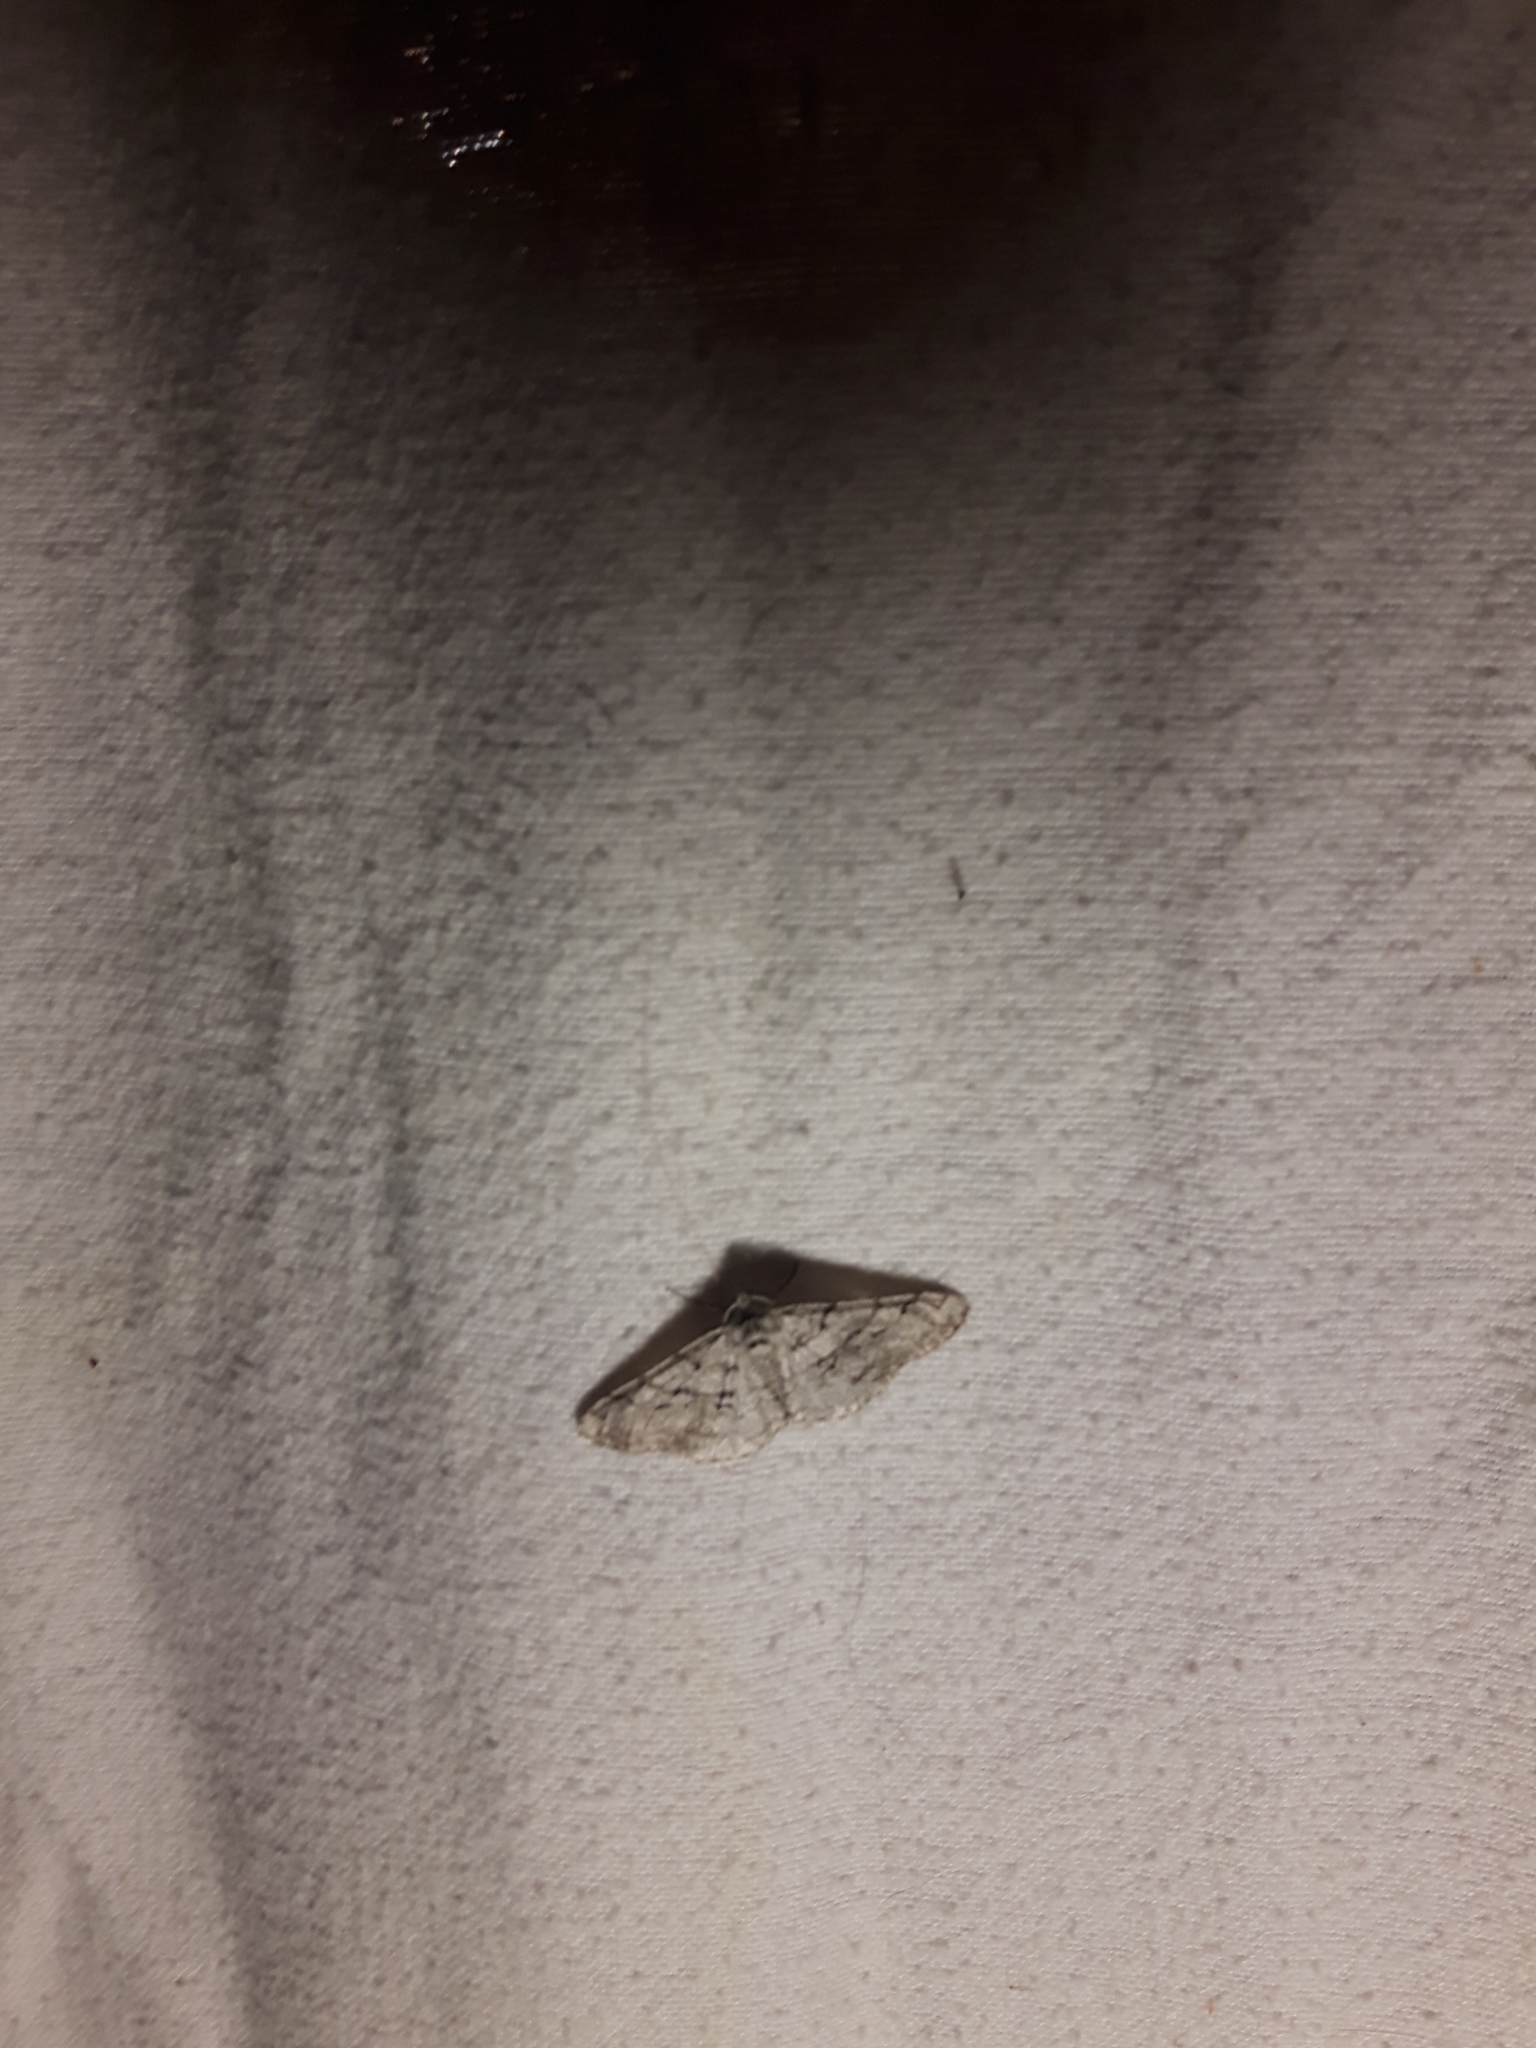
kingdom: Animalia
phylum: Arthropoda
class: Insecta
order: Lepidoptera
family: Geometridae
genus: Phigalia
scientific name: Phigalia titea
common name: Spiny looper
